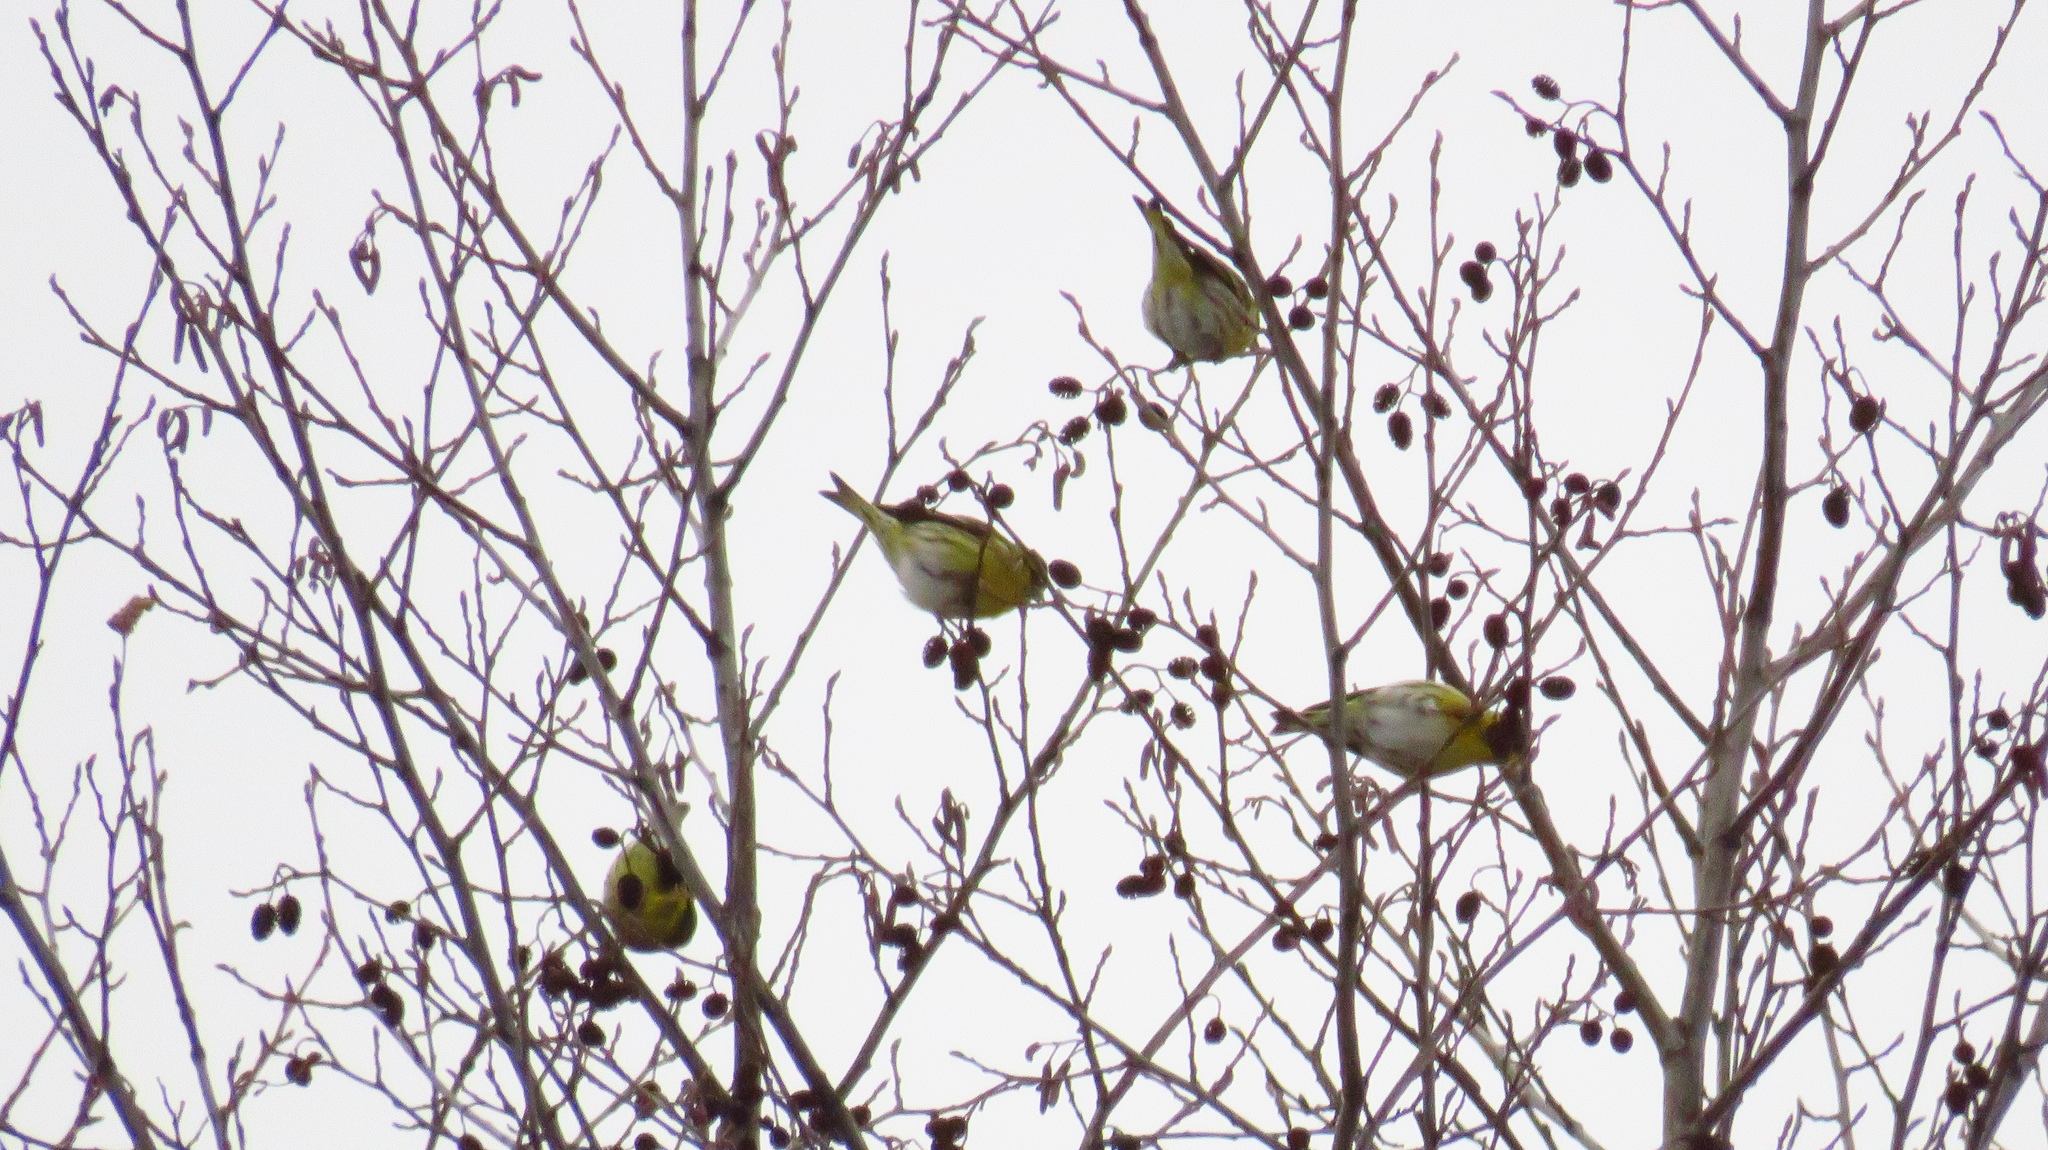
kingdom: Animalia
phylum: Chordata
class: Aves
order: Passeriformes
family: Fringillidae
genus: Spinus
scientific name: Spinus spinus
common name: Eurasian siskin
